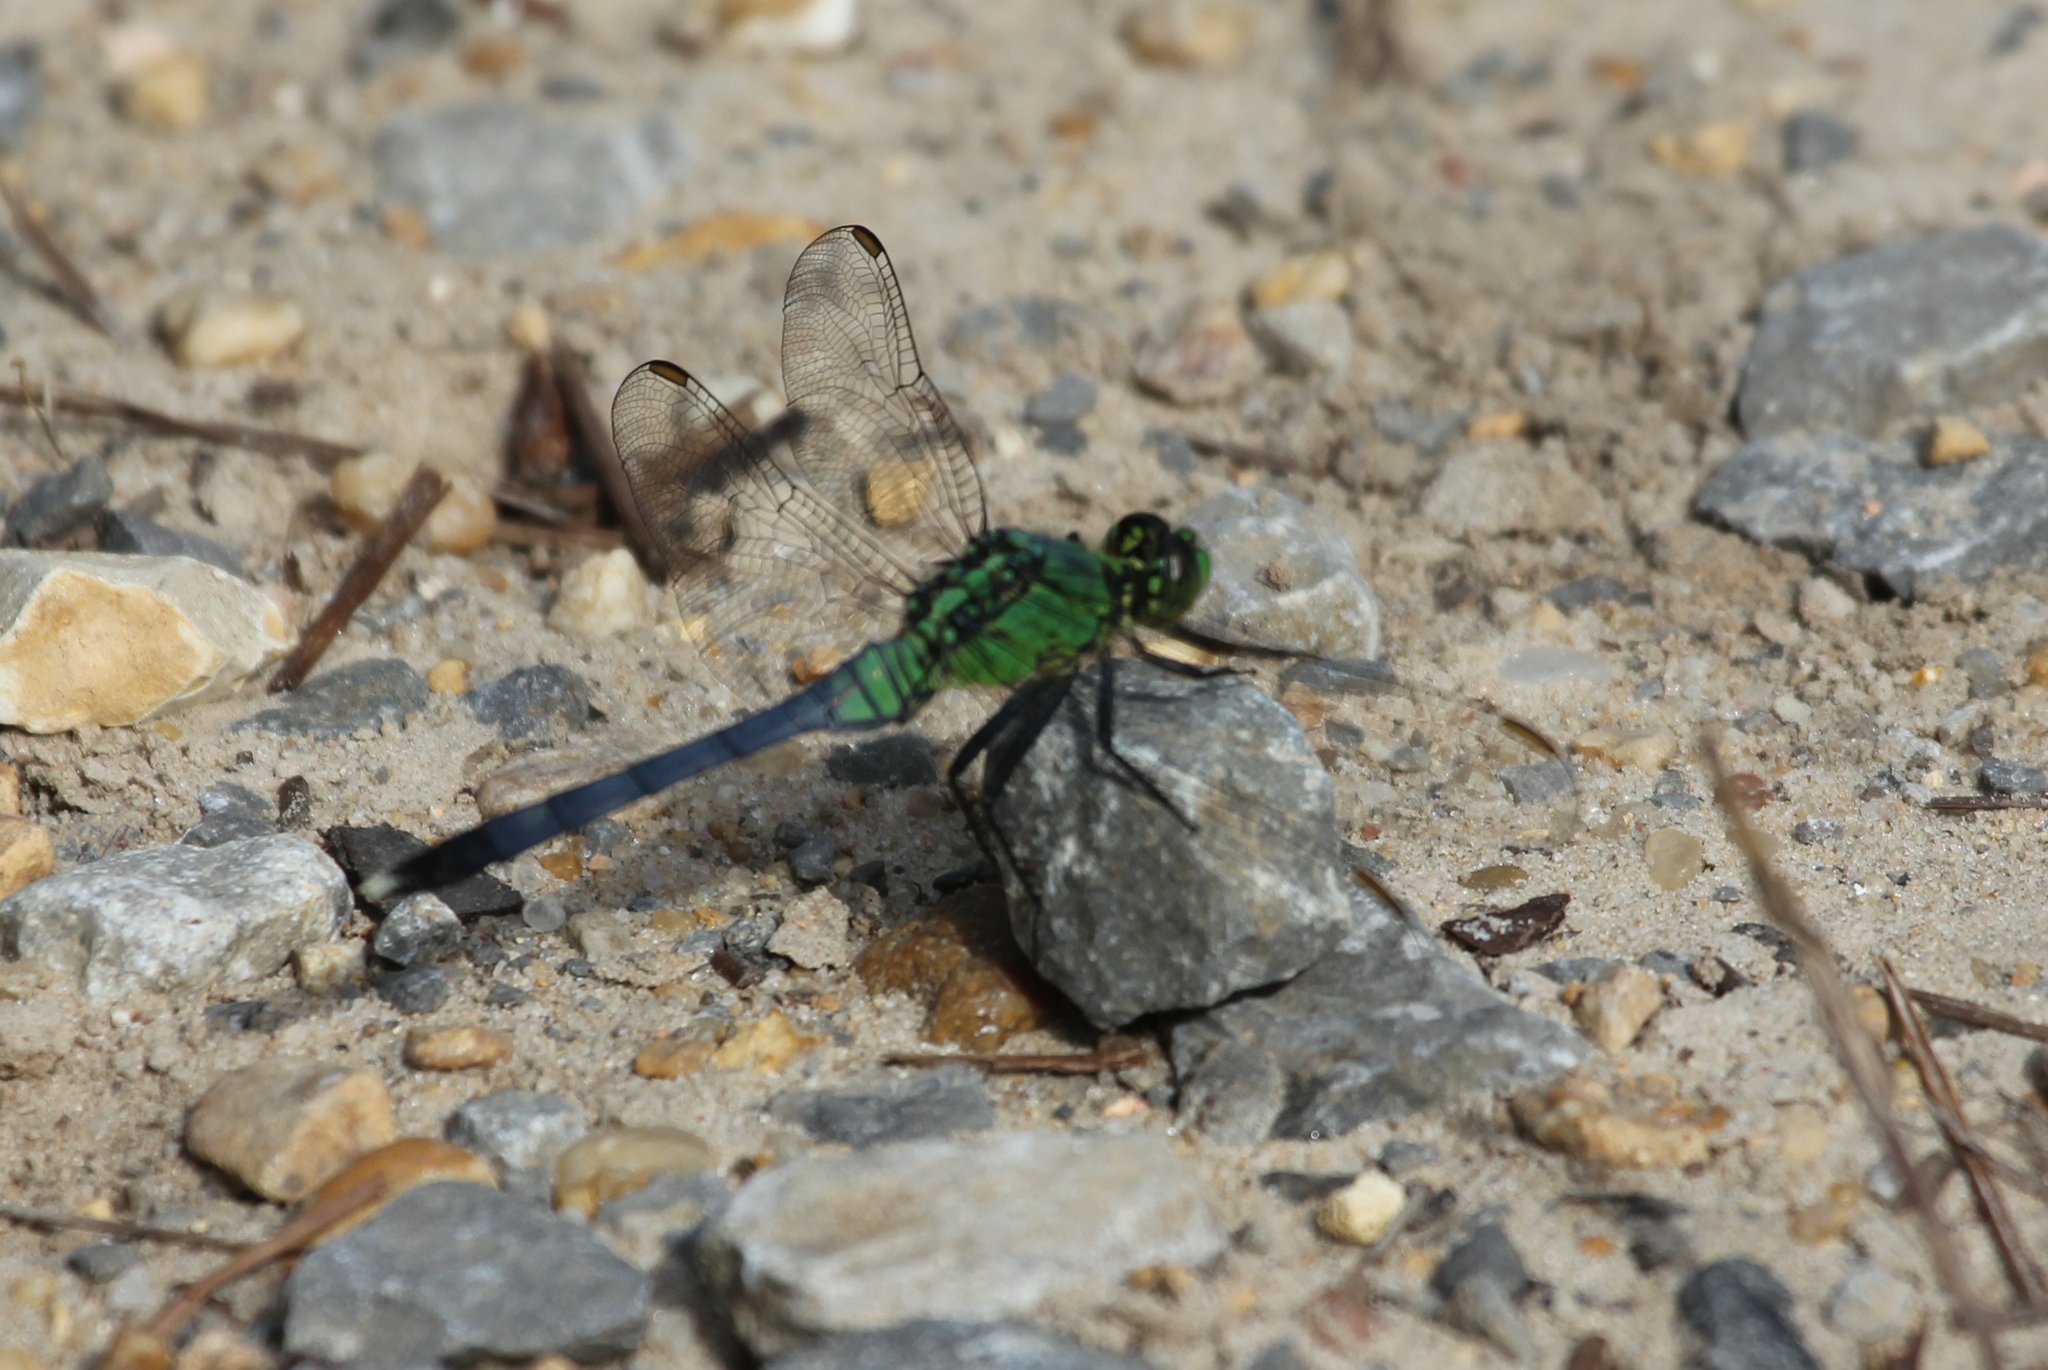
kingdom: Animalia
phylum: Arthropoda
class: Insecta
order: Odonata
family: Libellulidae
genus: Erythemis
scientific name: Erythemis simplicicollis
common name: Eastern pondhawk
